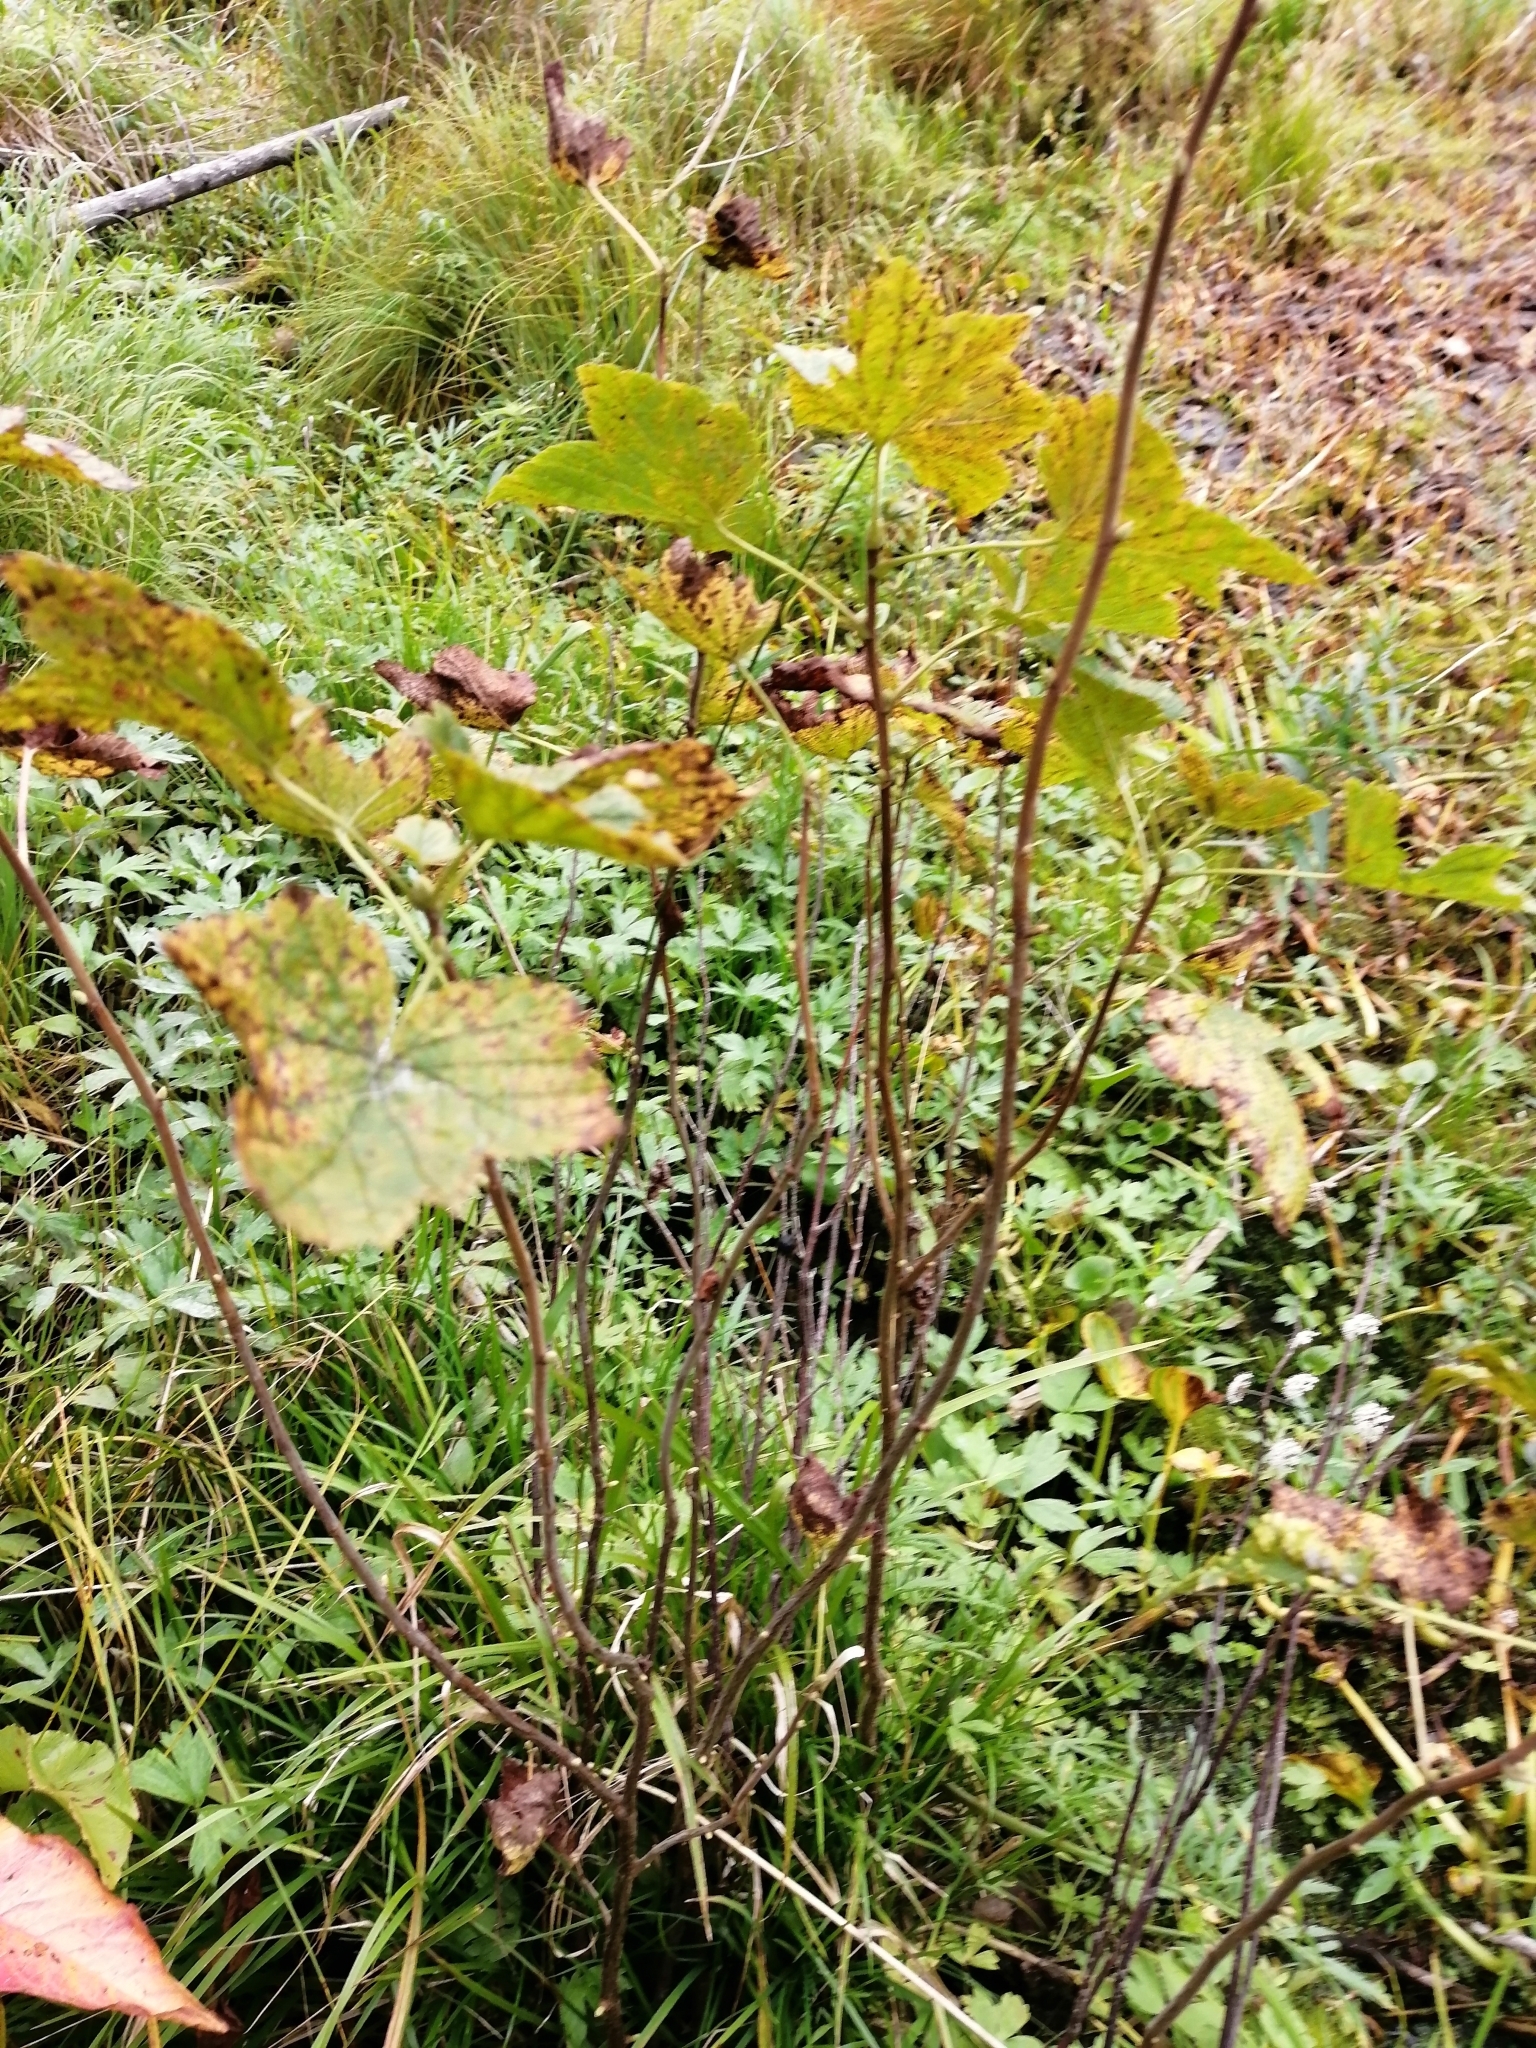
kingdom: Plantae
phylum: Tracheophyta
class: Magnoliopsida
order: Saxifragales
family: Grossulariaceae
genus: Ribes
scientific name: Ribes nigrum
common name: Black currant
